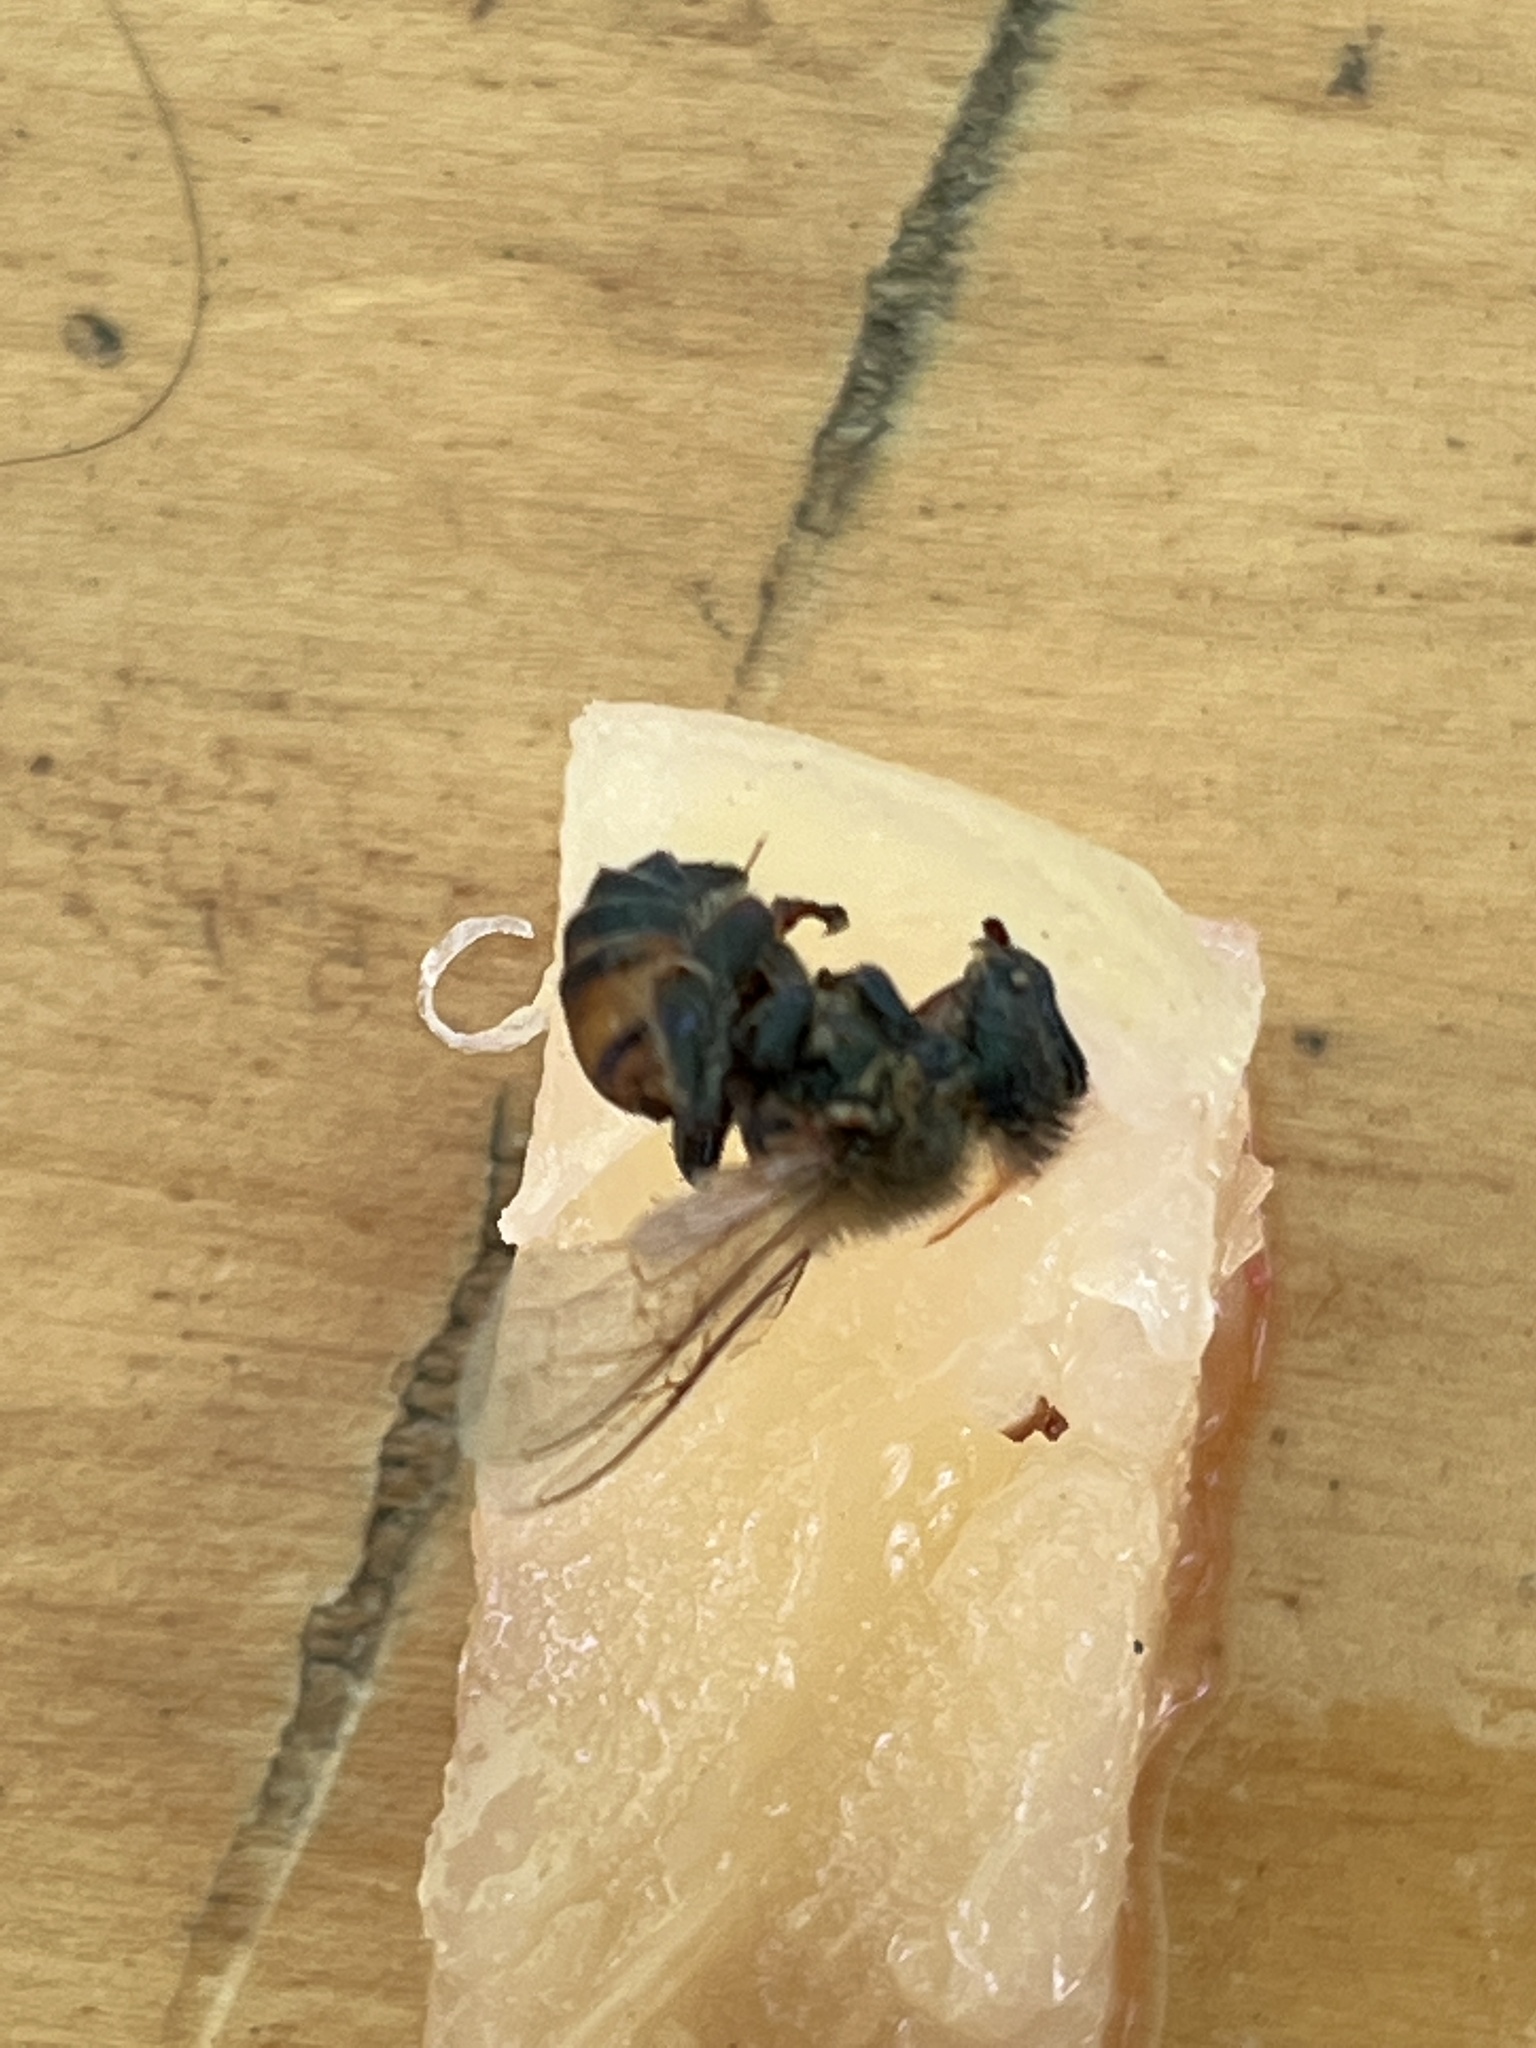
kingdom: Animalia
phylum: Arthropoda
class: Insecta
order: Hymenoptera
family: Apidae
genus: Apis
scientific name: Apis mellifera
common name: Honey bee
